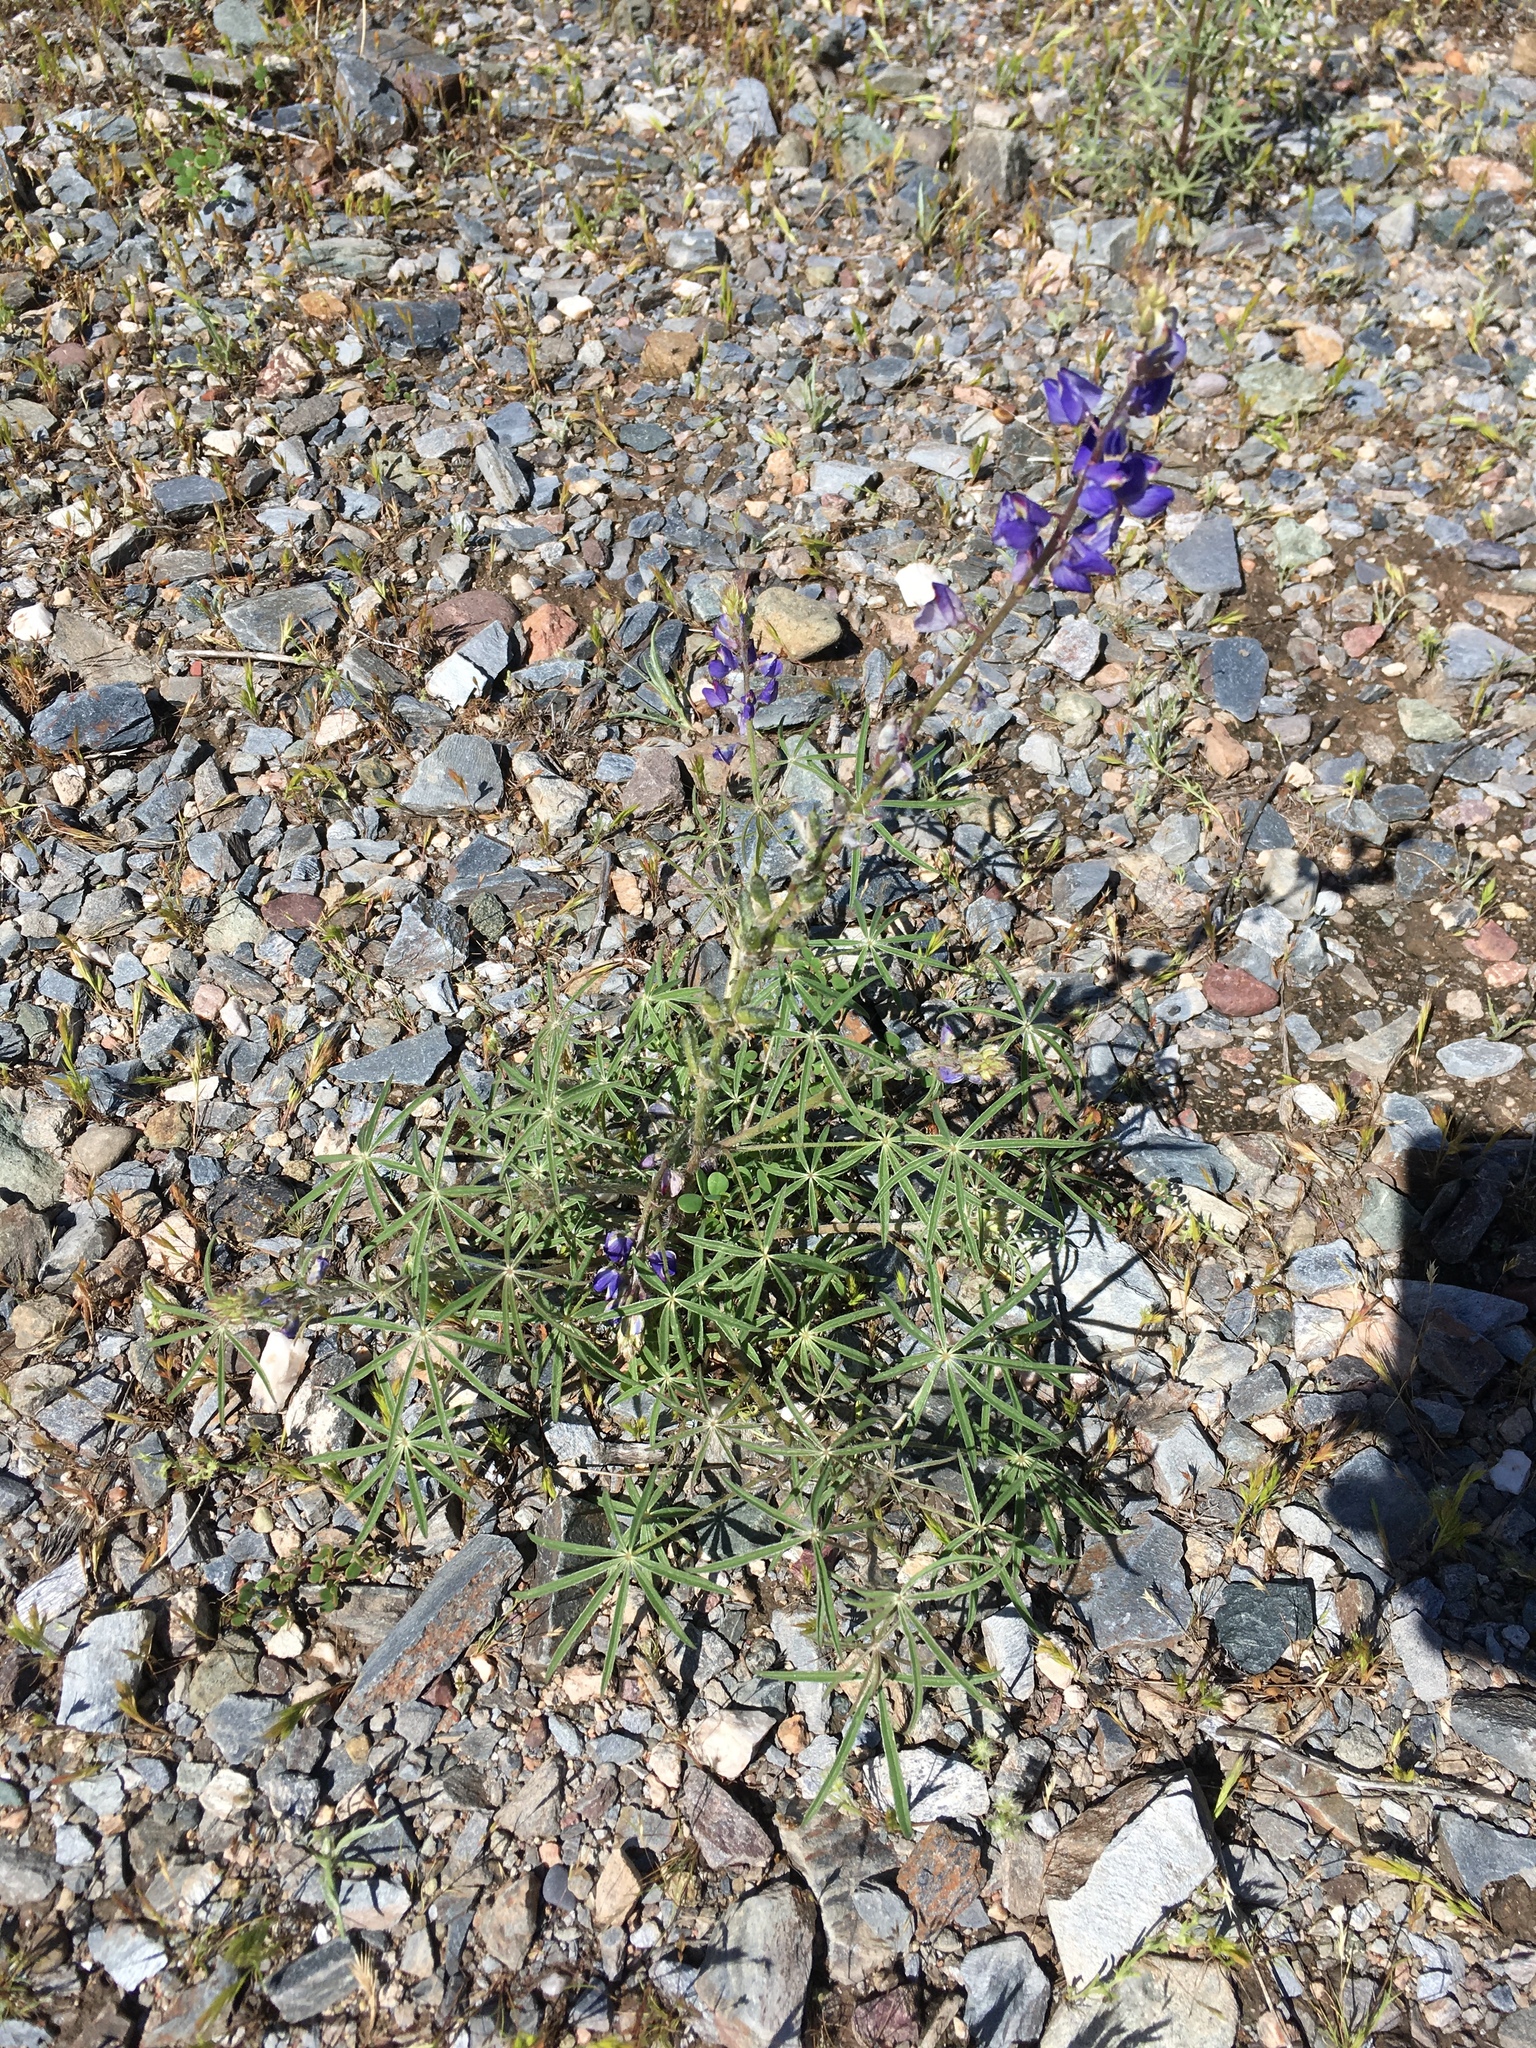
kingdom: Plantae
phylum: Tracheophyta
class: Magnoliopsida
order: Fabales
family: Fabaceae
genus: Lupinus
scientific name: Lupinus sparsiflorus
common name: Coulter's lupine
